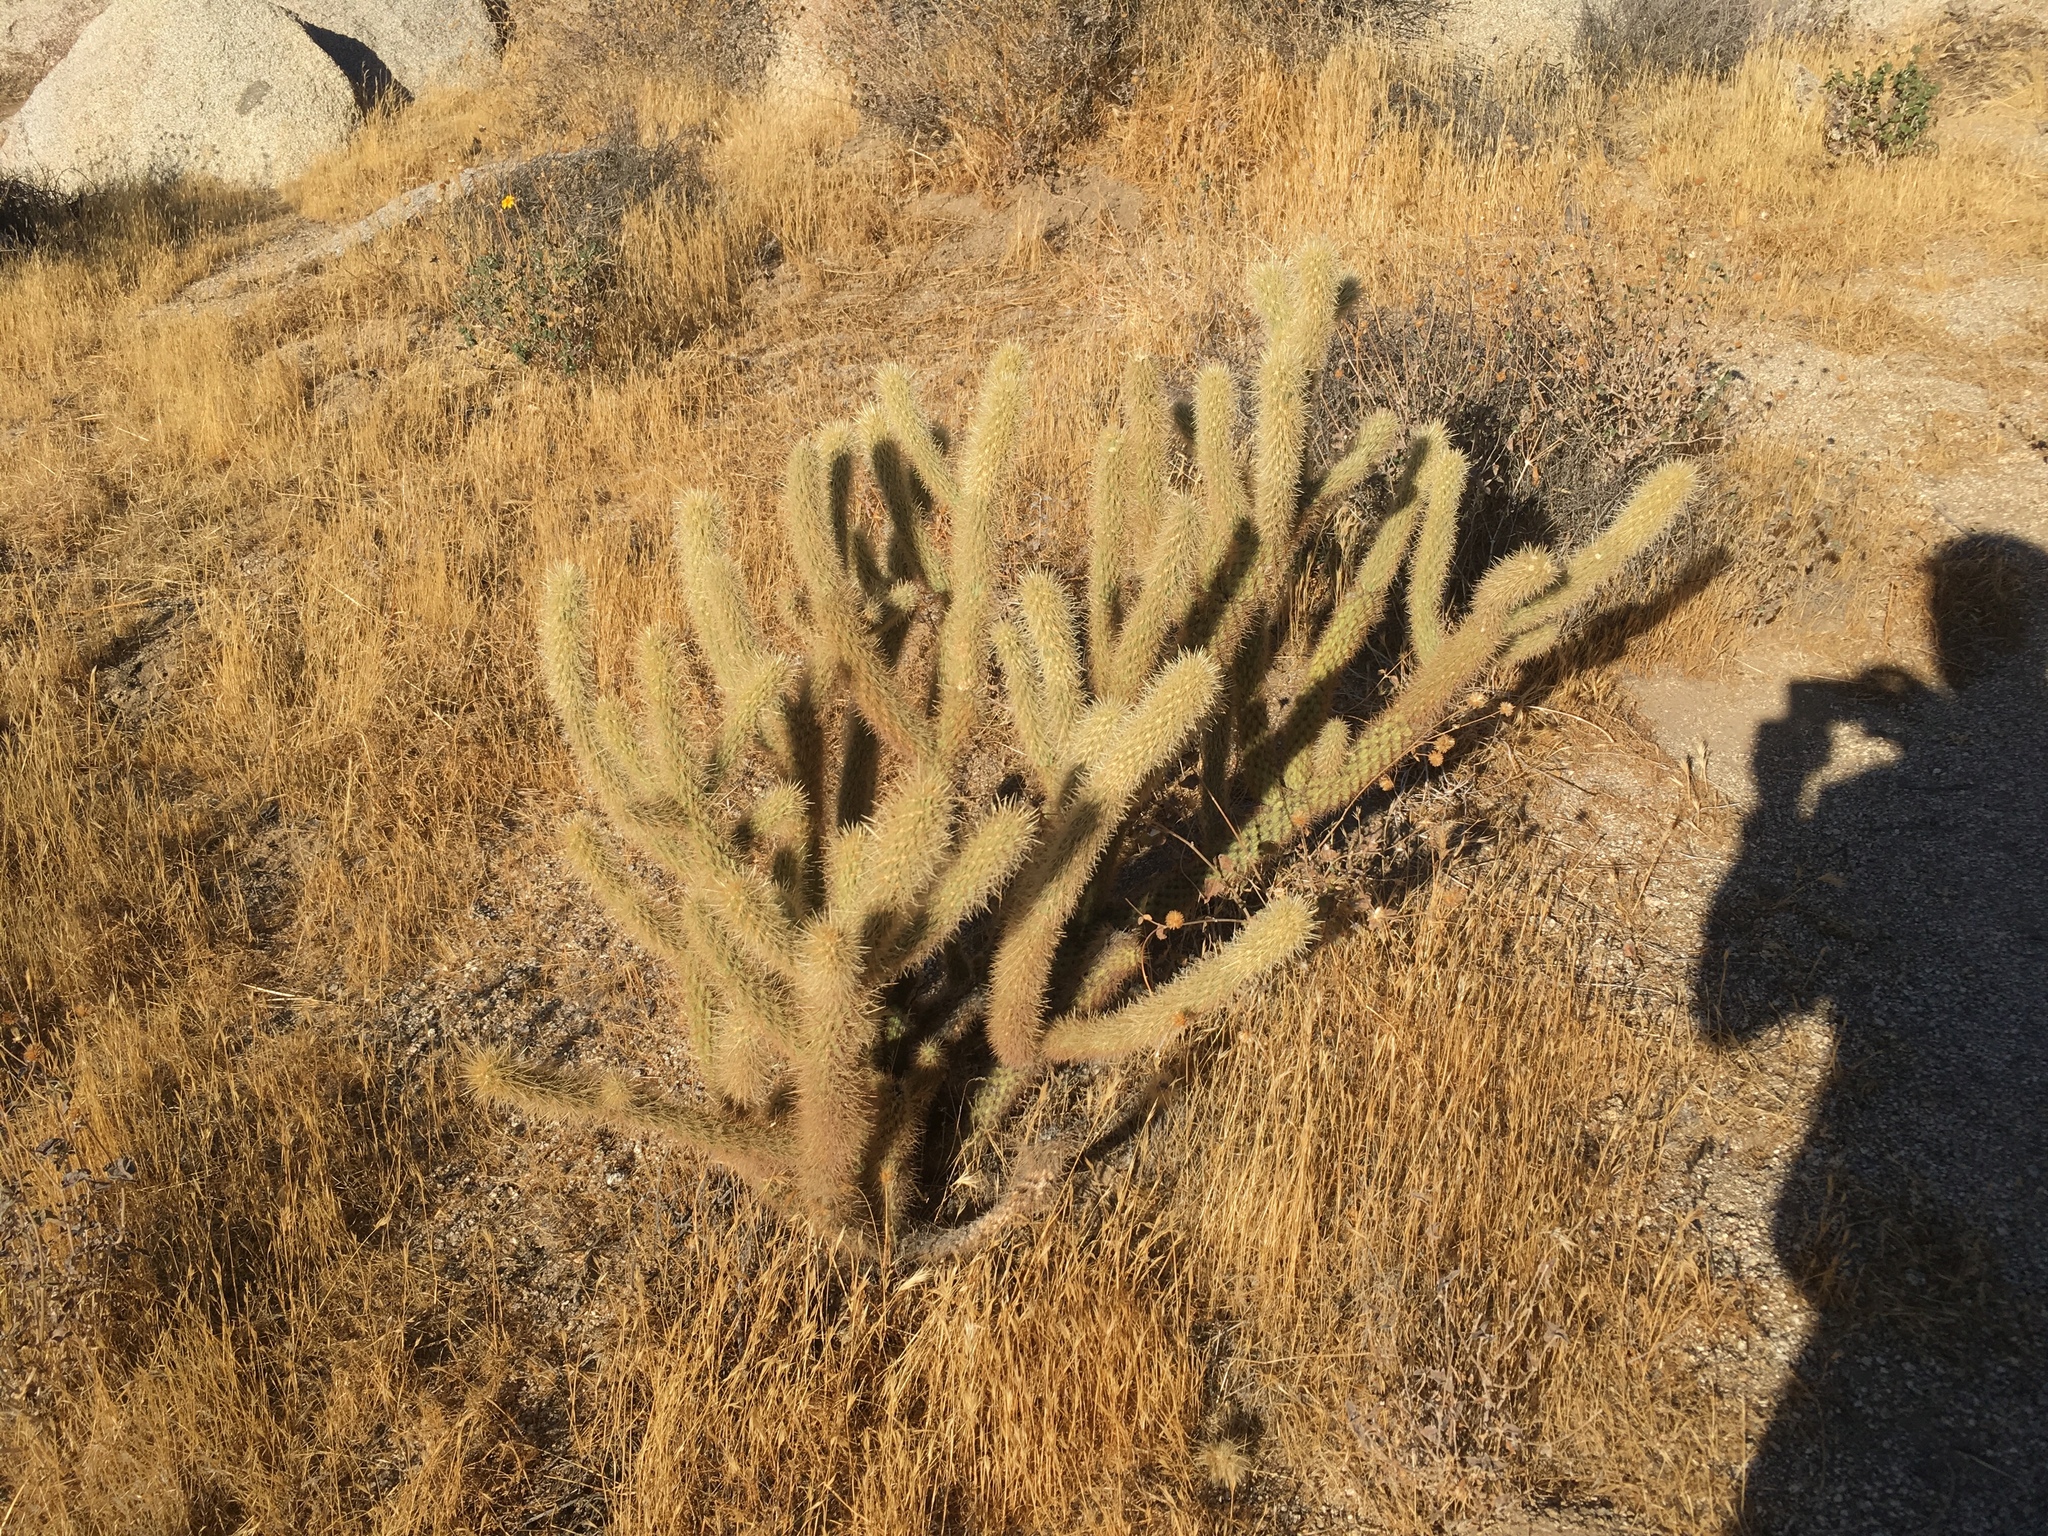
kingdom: Plantae
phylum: Tracheophyta
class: Magnoliopsida
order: Caryophyllales
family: Cactaceae
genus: Cylindropuntia
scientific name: Cylindropuntia ganderi
